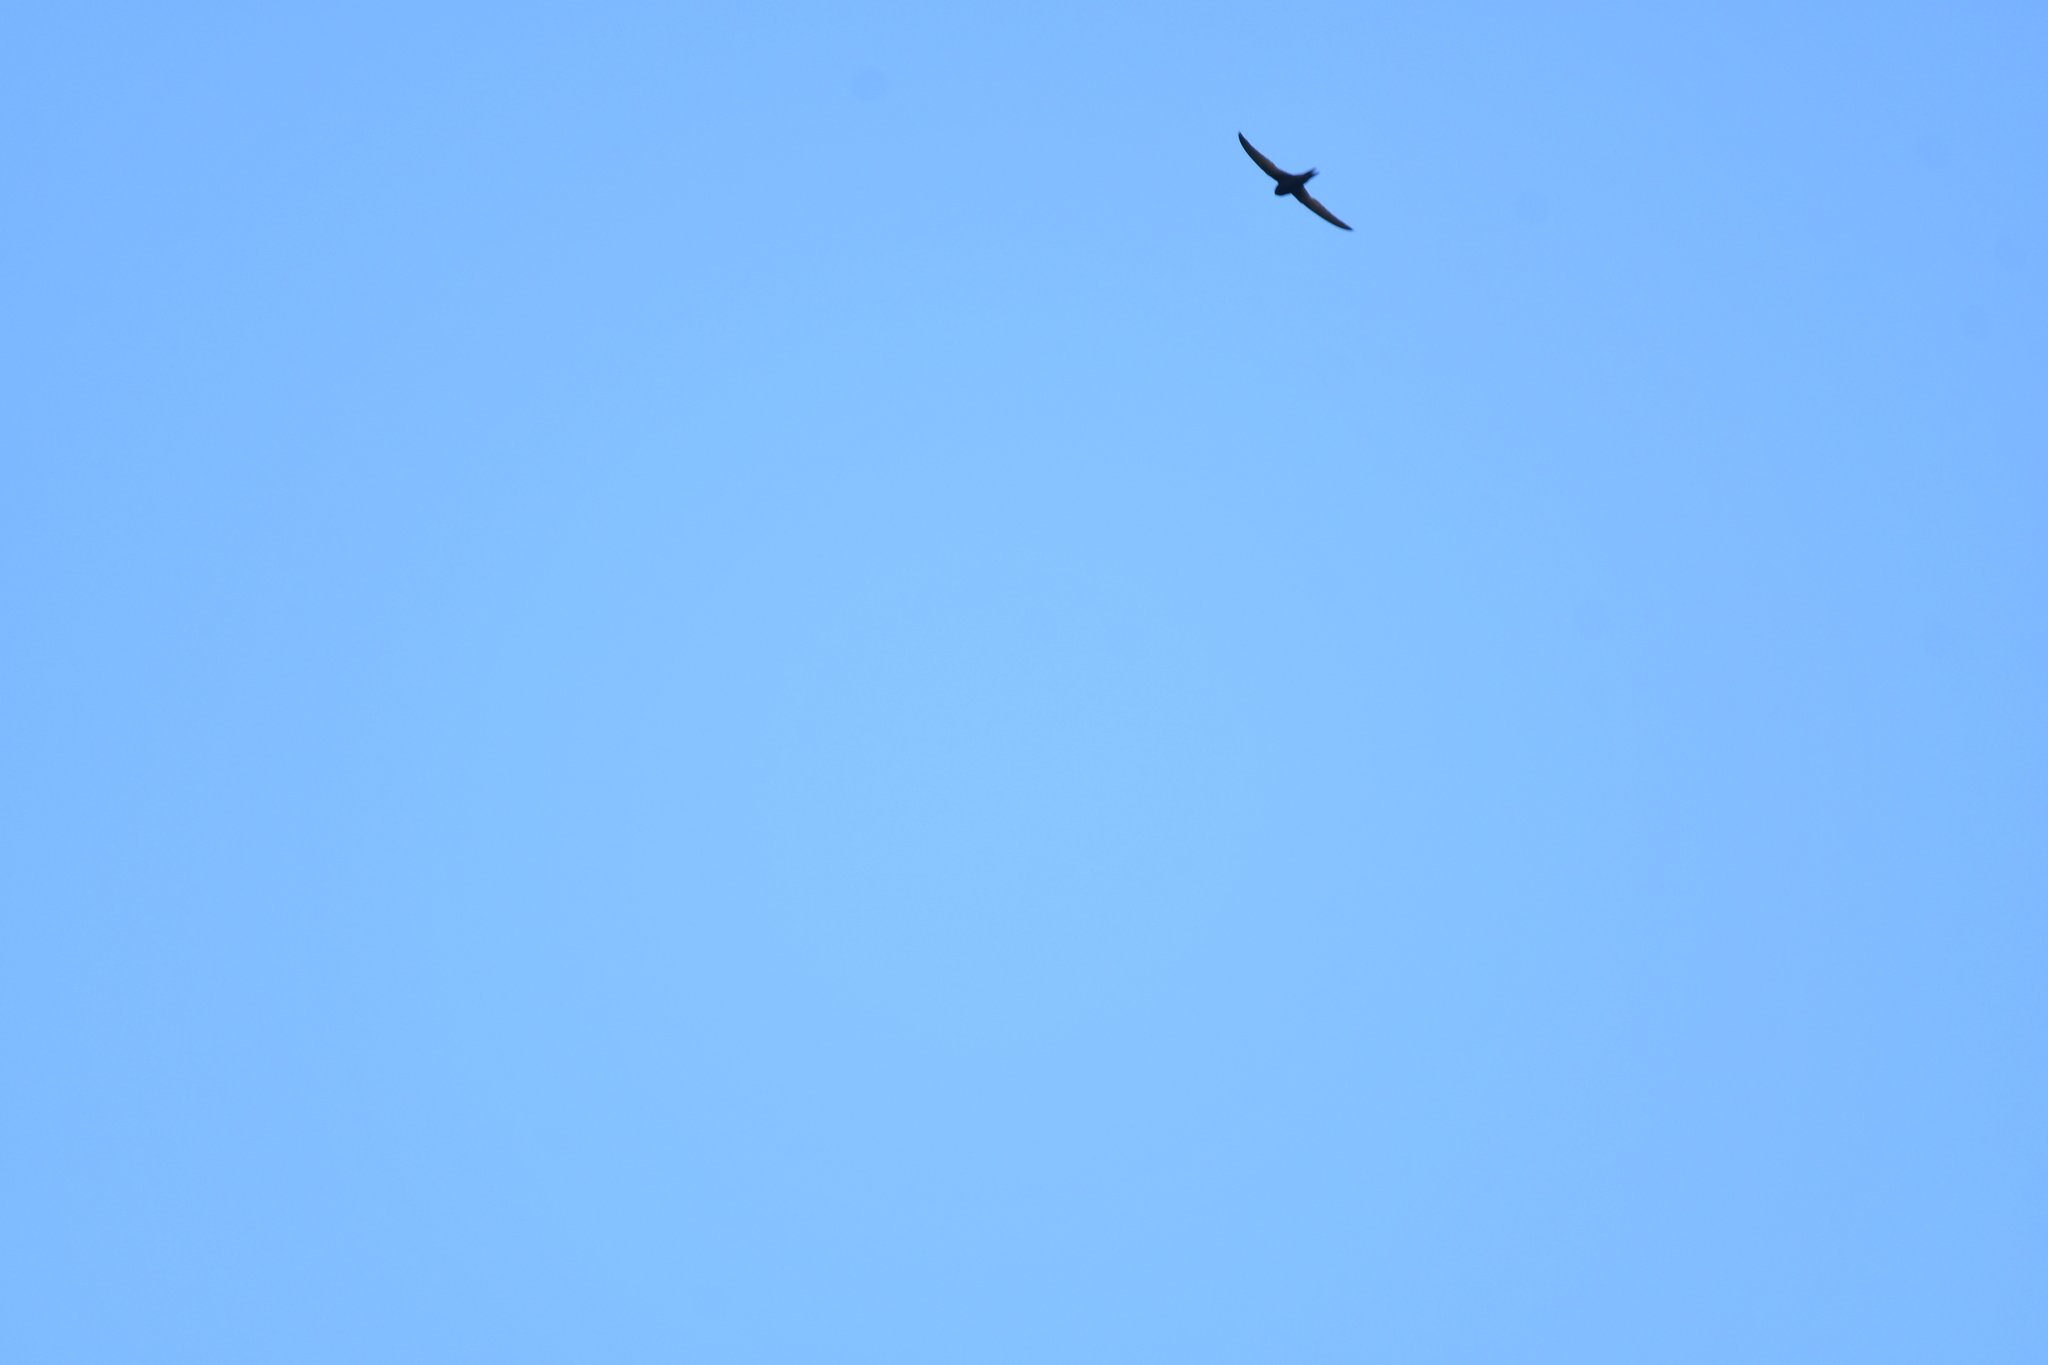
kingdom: Animalia
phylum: Chordata
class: Aves
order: Apodiformes
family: Apodidae
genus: Apus
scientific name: Apus apus
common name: Common swift
